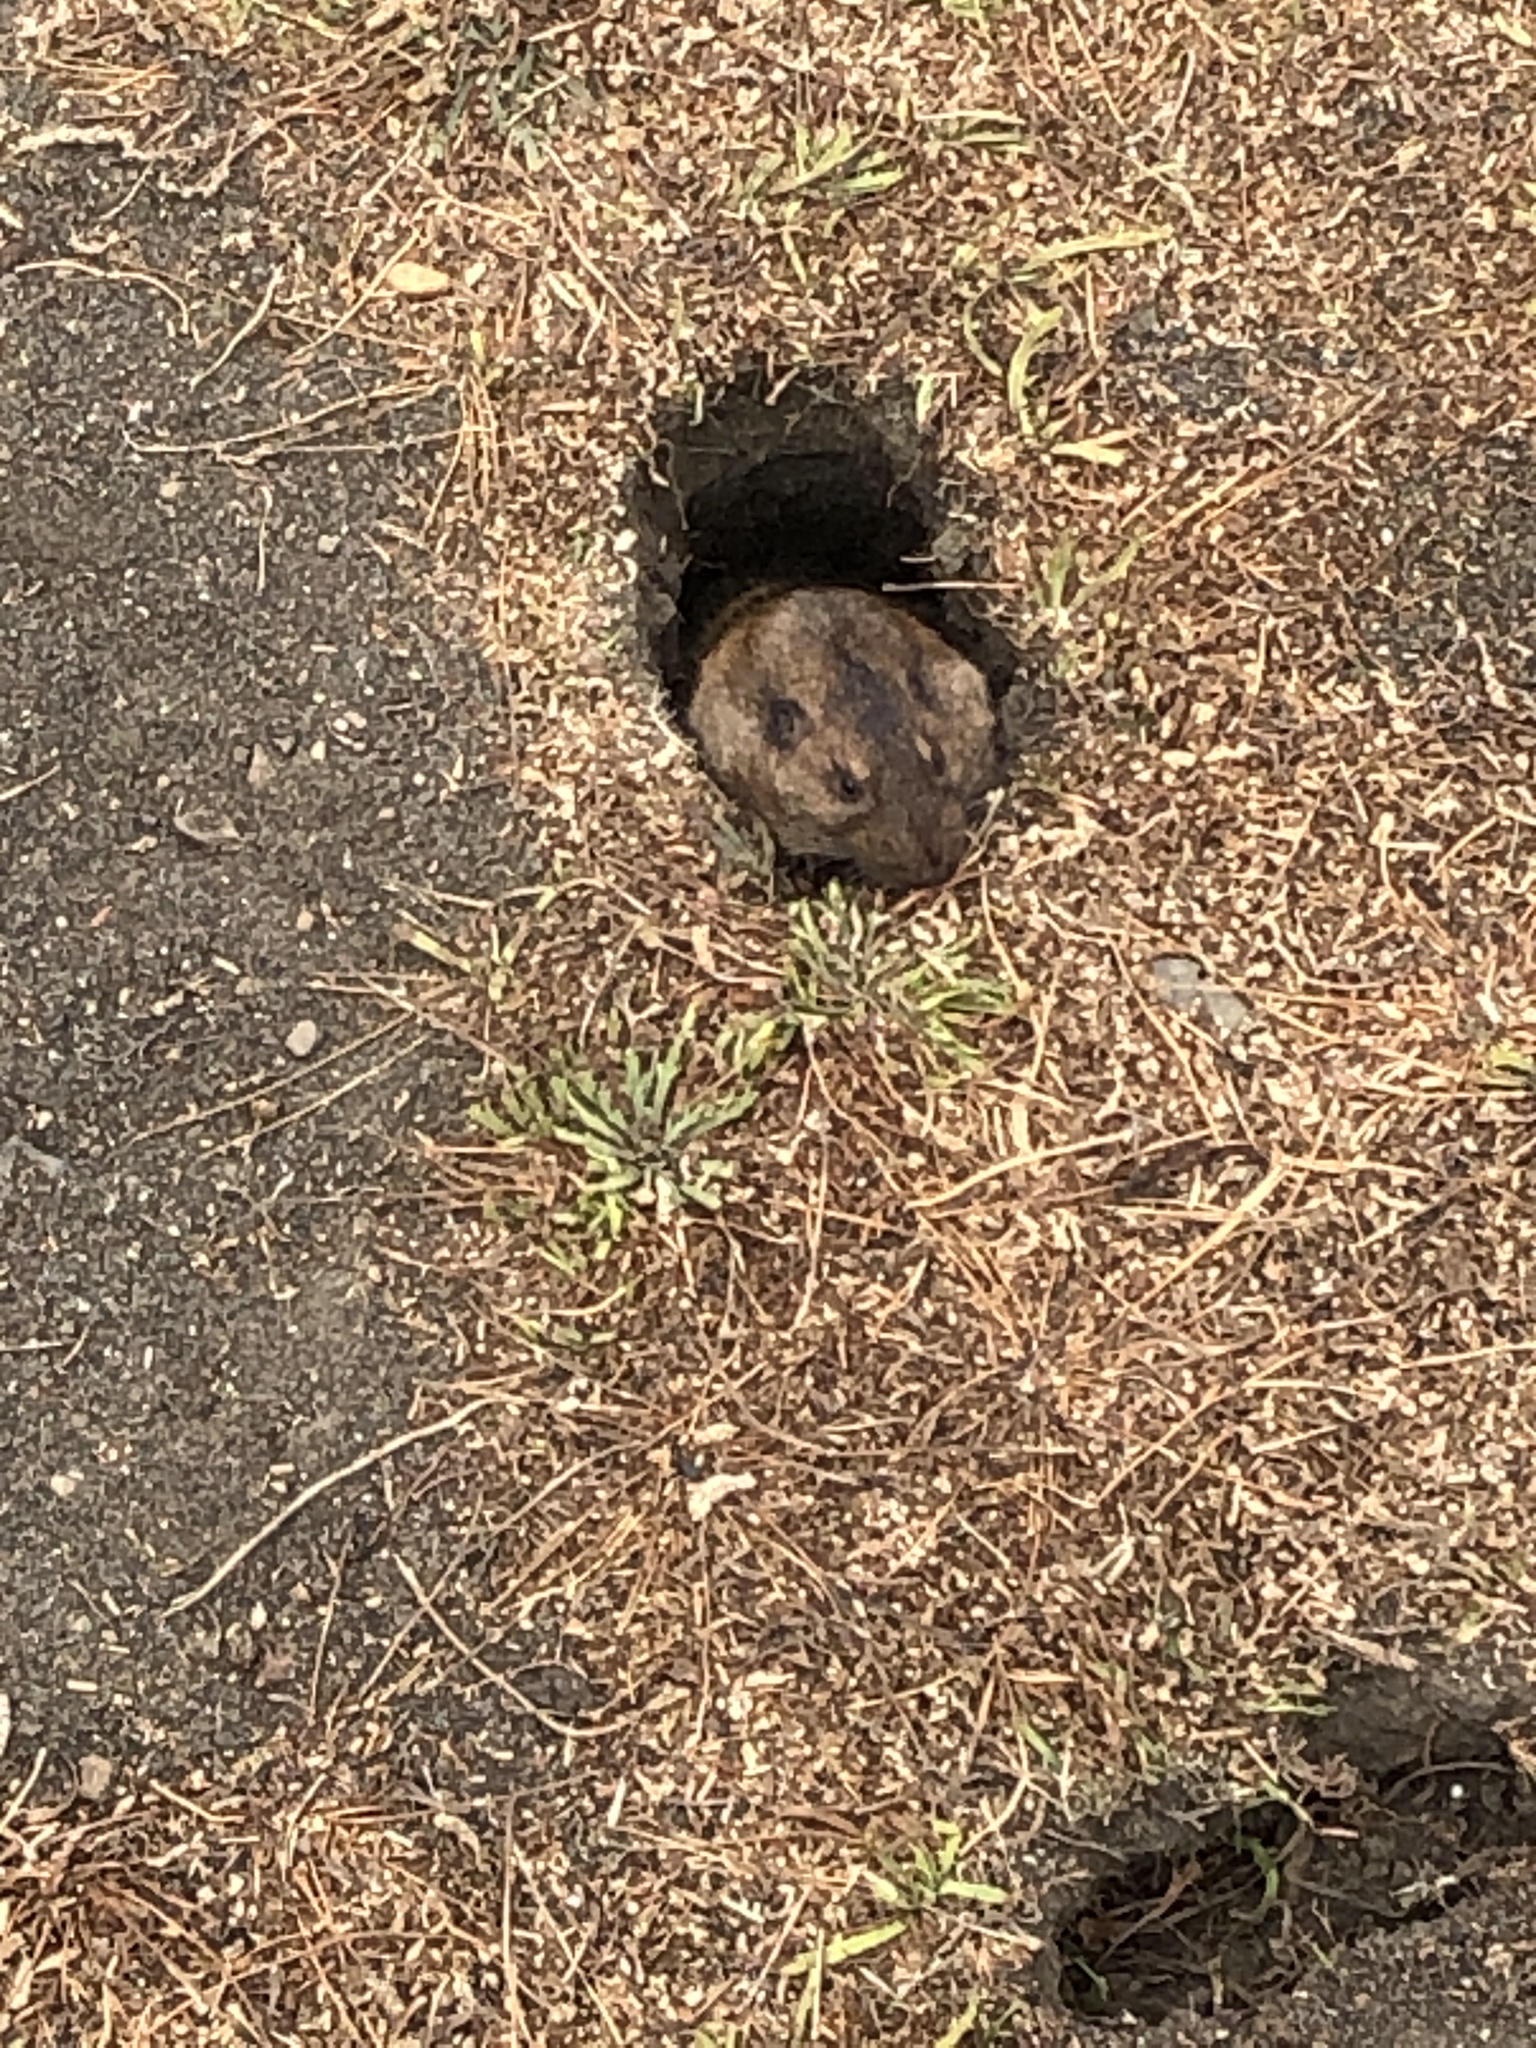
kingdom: Animalia
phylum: Chordata
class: Mammalia
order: Rodentia
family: Geomyidae
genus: Thomomys
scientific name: Thomomys bottae
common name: Botta's pocket gopher
